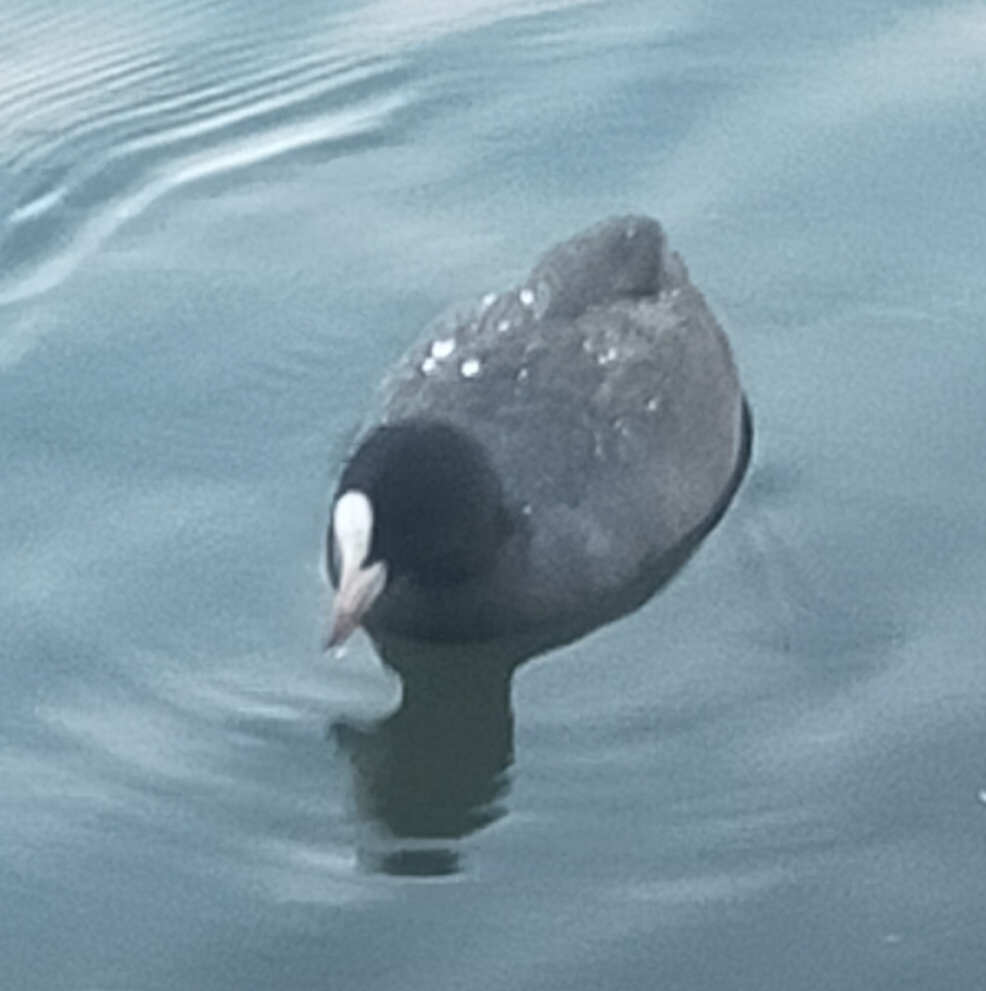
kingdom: Animalia
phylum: Chordata
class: Aves
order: Gruiformes
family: Rallidae
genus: Fulica
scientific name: Fulica atra
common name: Eurasian coot
